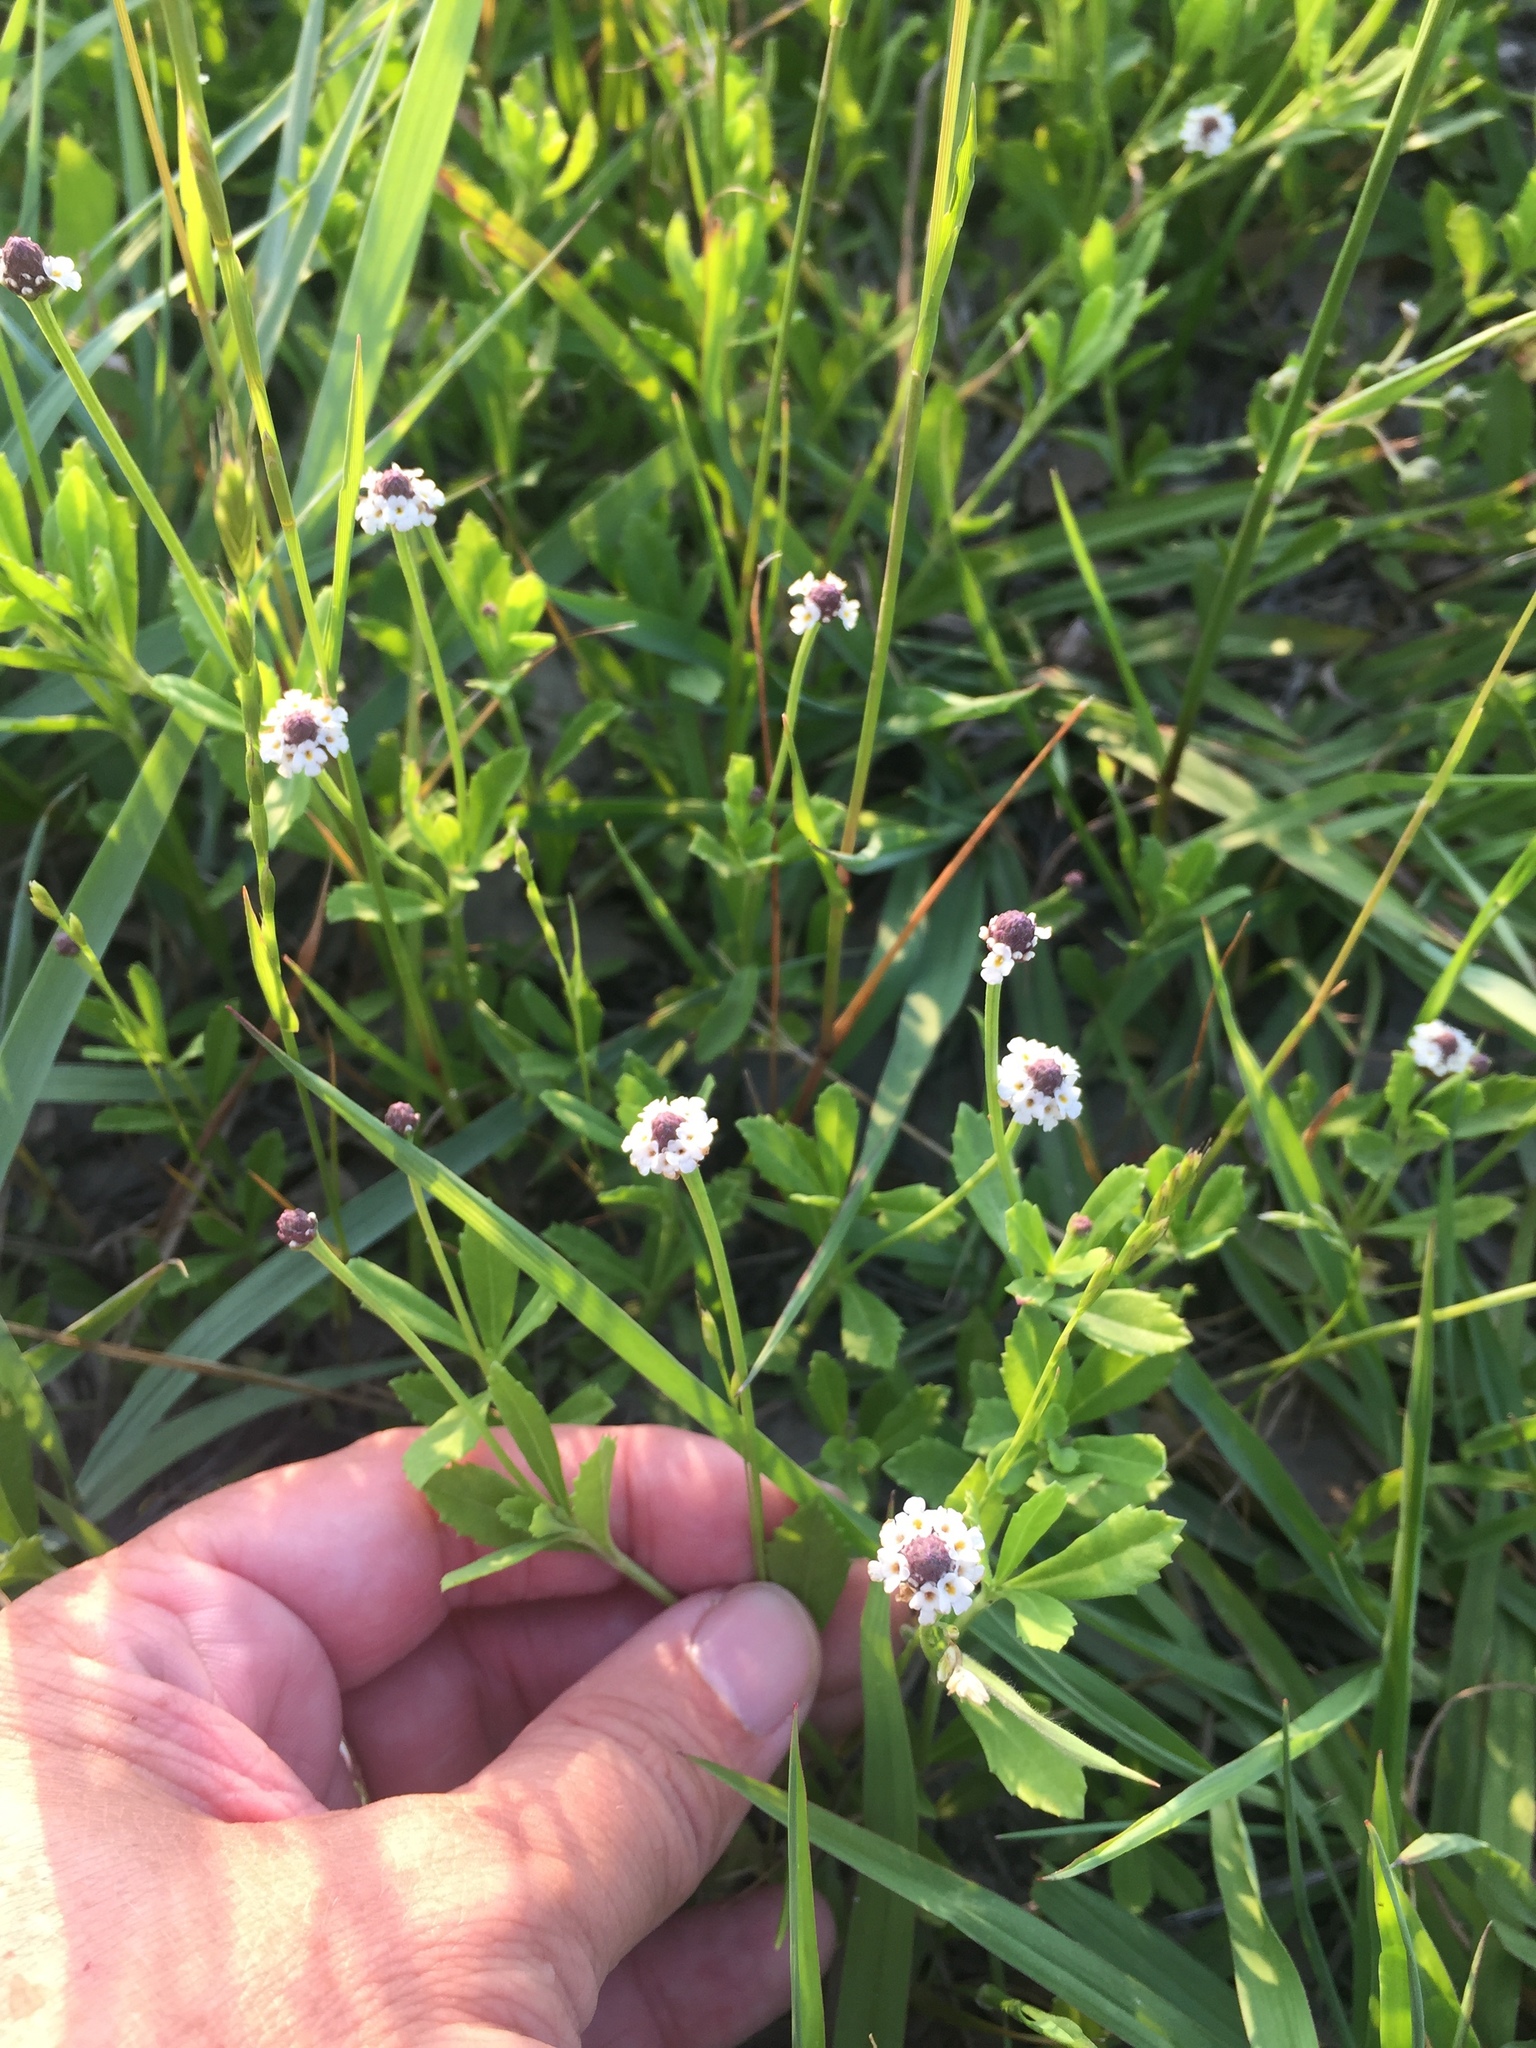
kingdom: Plantae
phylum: Tracheophyta
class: Magnoliopsida
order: Lamiales
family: Verbenaceae
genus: Phyla
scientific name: Phyla nodiflora
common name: Frogfruit
